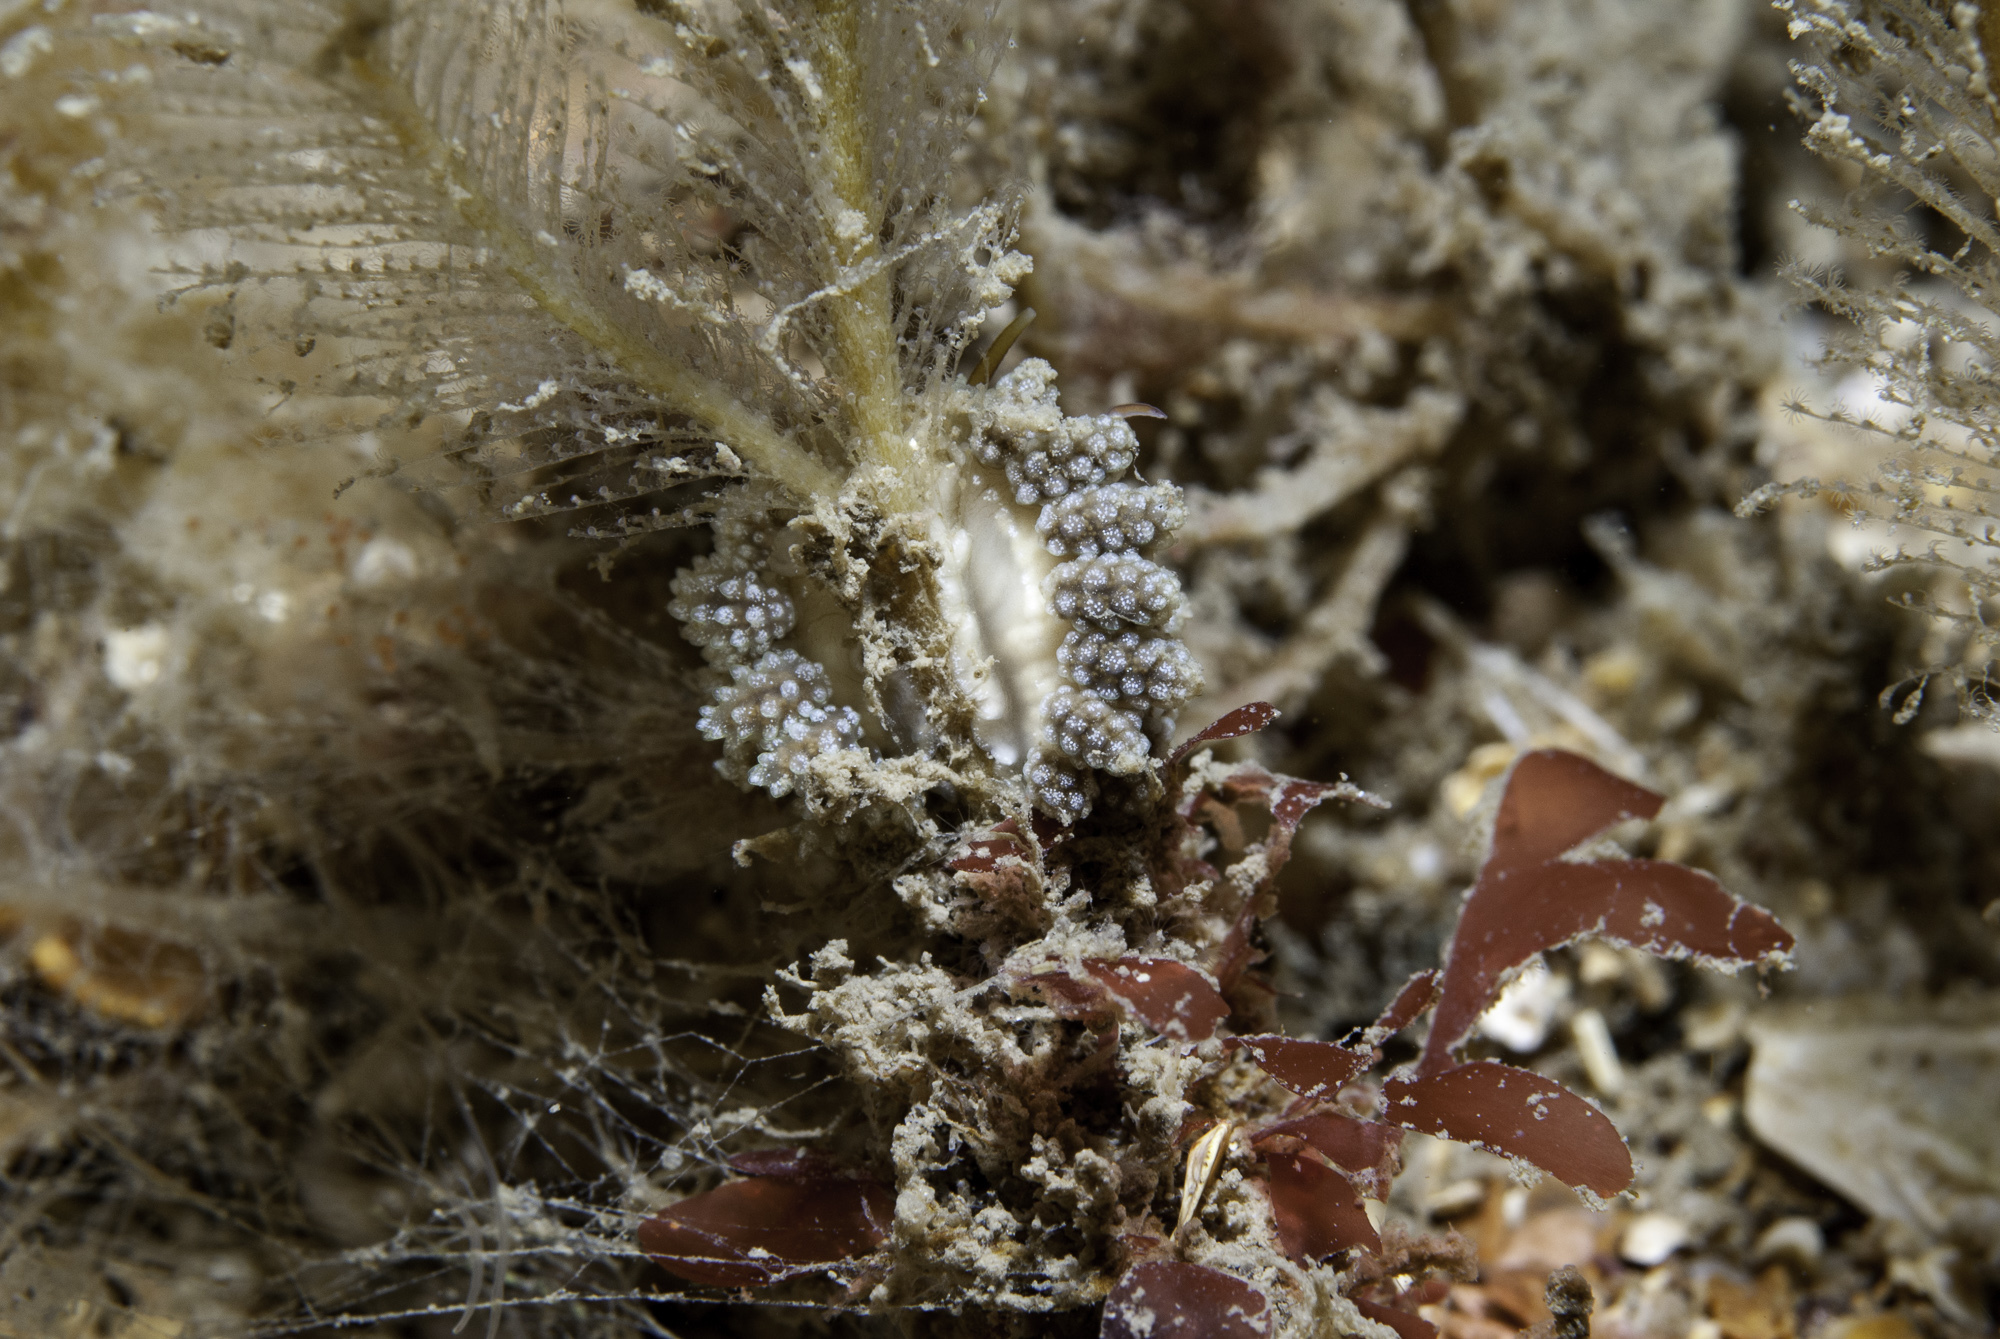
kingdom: Animalia
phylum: Mollusca
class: Gastropoda
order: Nudibranchia
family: Dotidae
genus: Doto
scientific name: Doto fragilis
